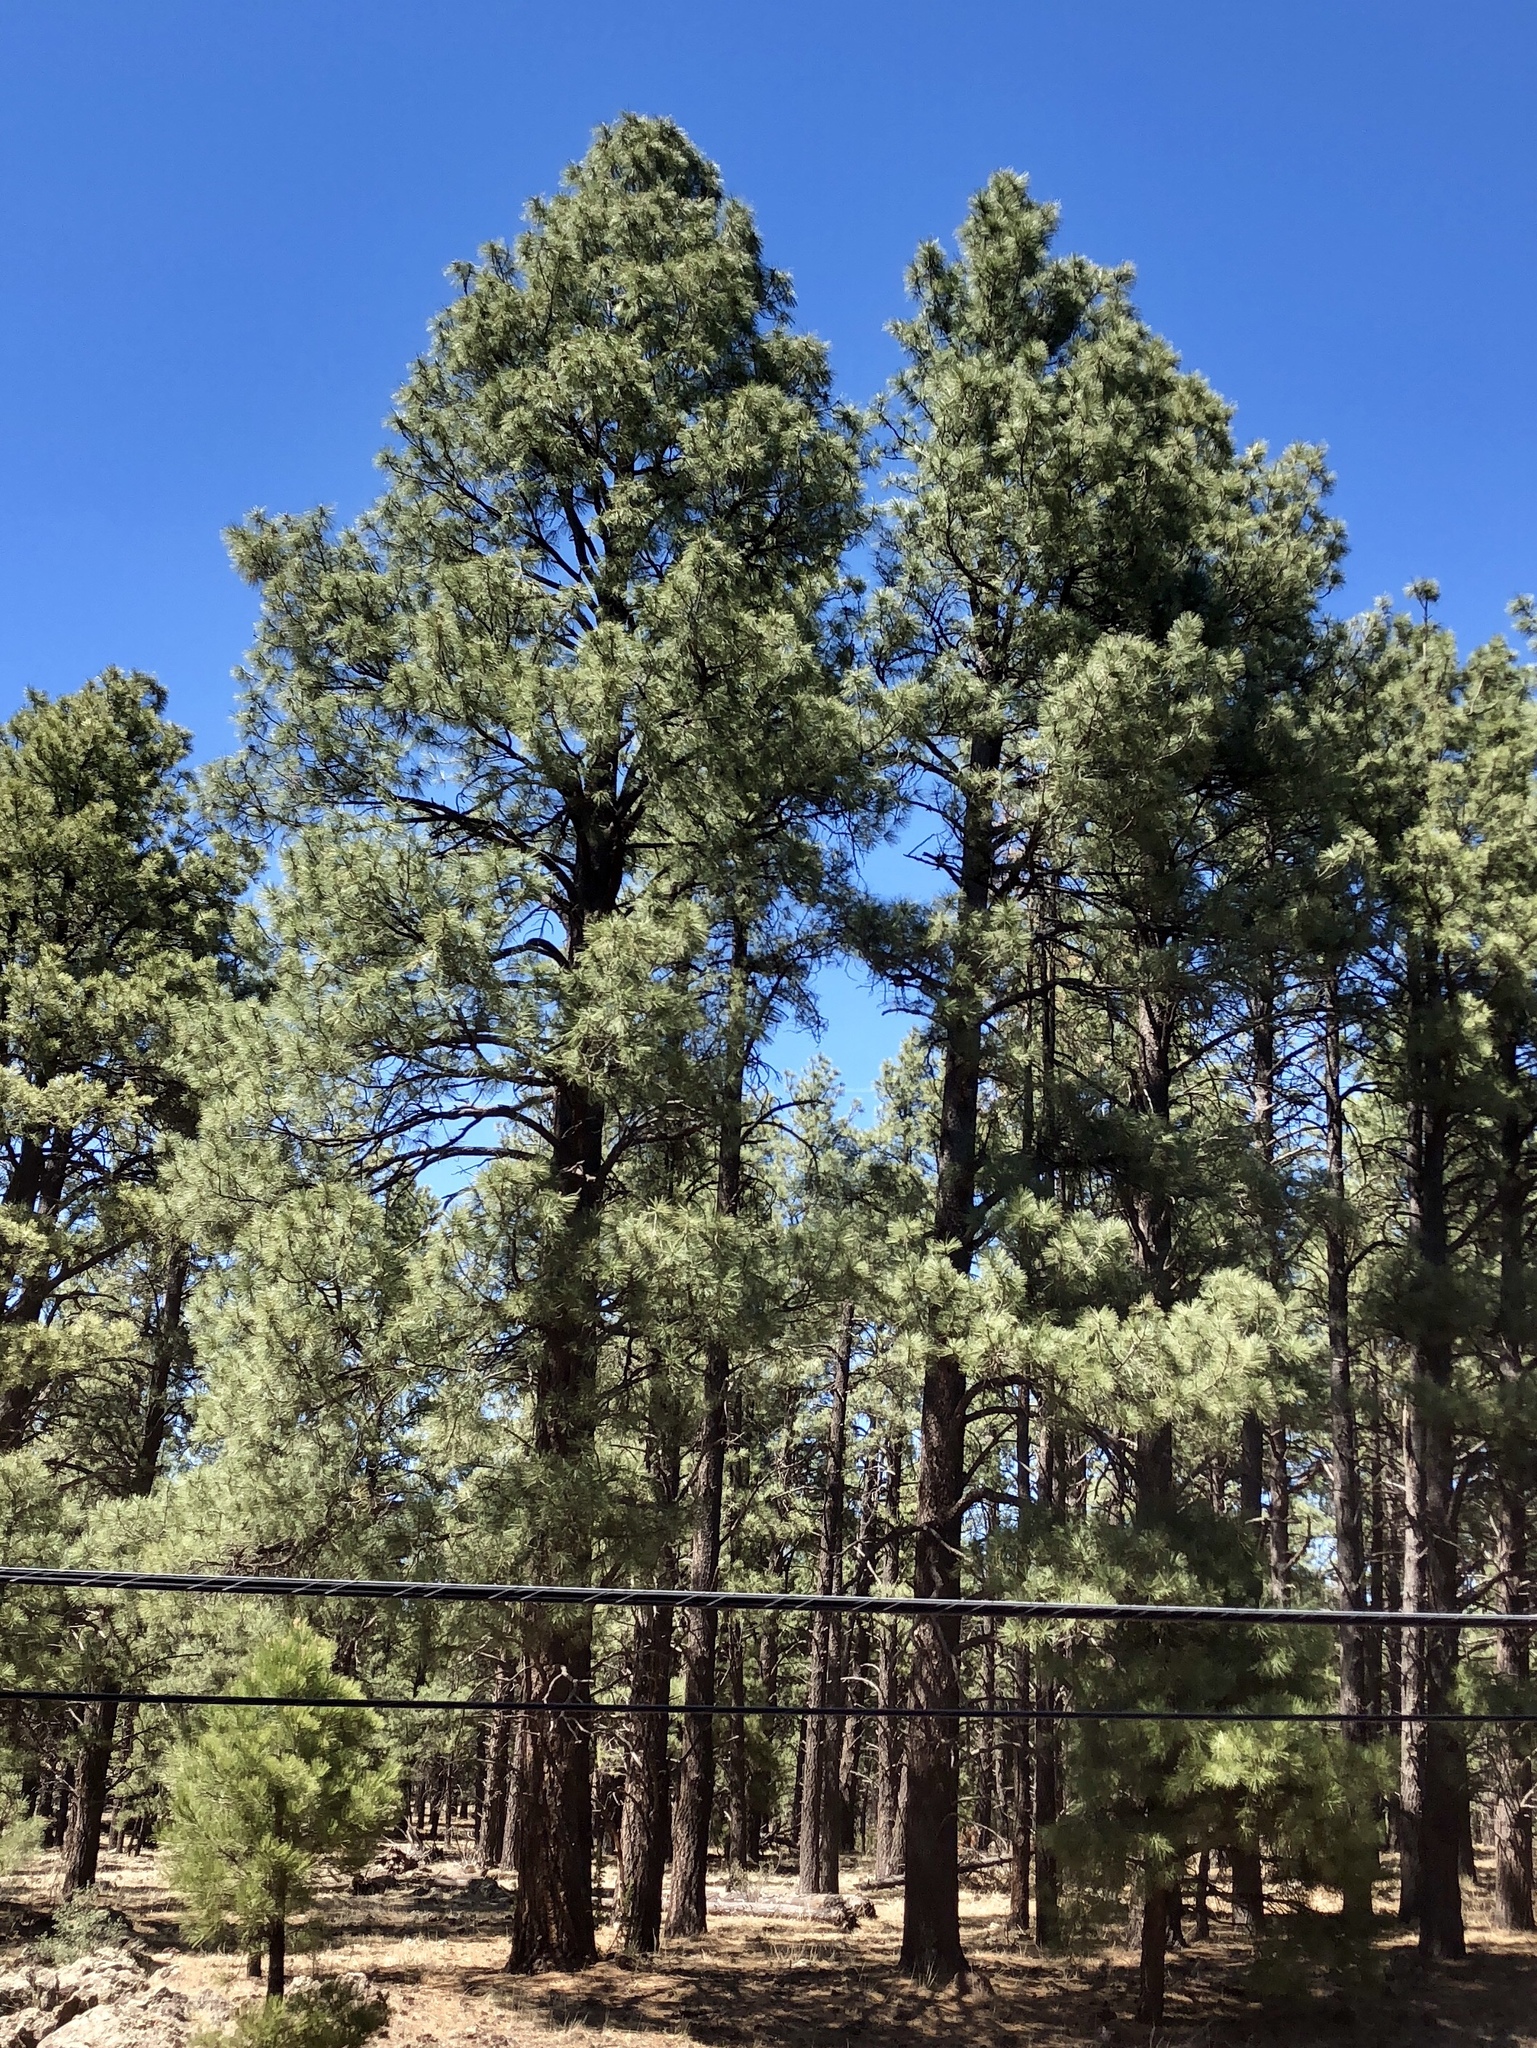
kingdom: Plantae
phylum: Tracheophyta
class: Pinopsida
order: Pinales
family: Pinaceae
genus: Pinus
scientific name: Pinus ponderosa
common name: Western yellow-pine
